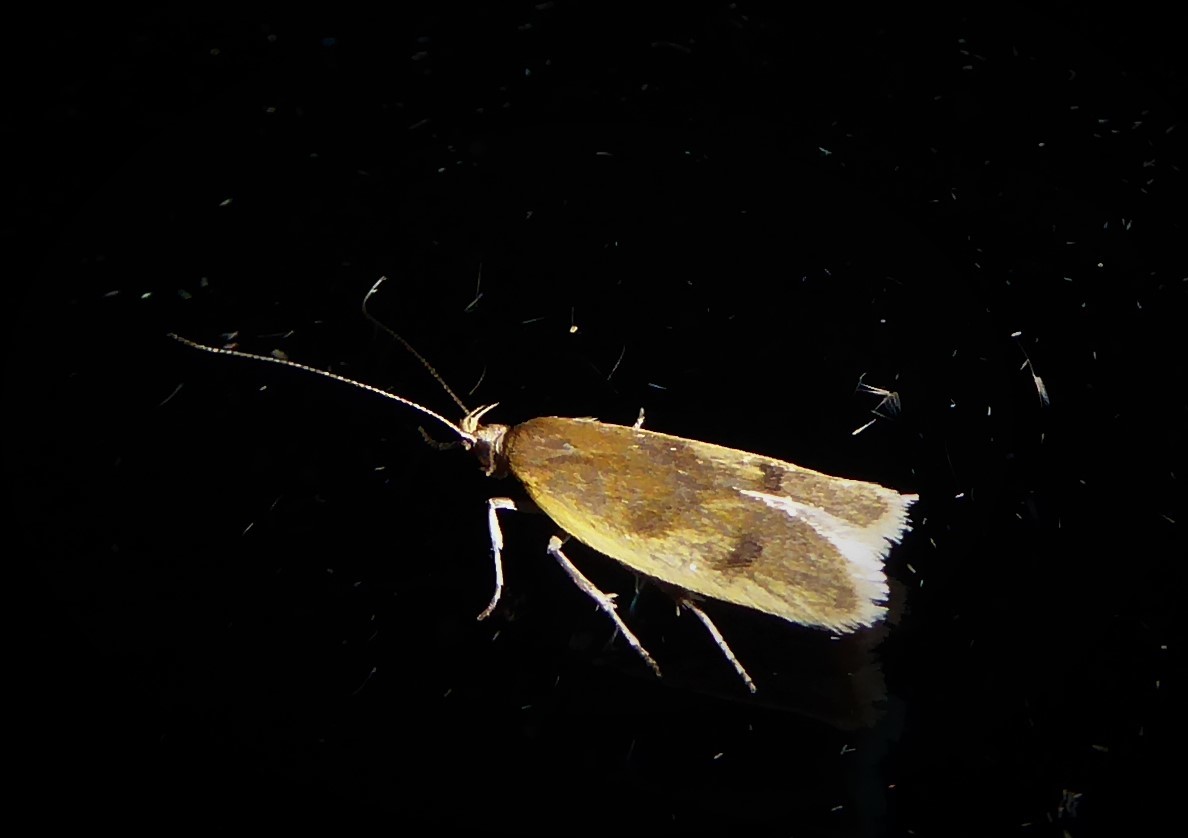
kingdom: Animalia
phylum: Arthropoda
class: Insecta
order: Lepidoptera
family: Oecophoridae
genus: Gymnobathra
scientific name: Gymnobathra parca
